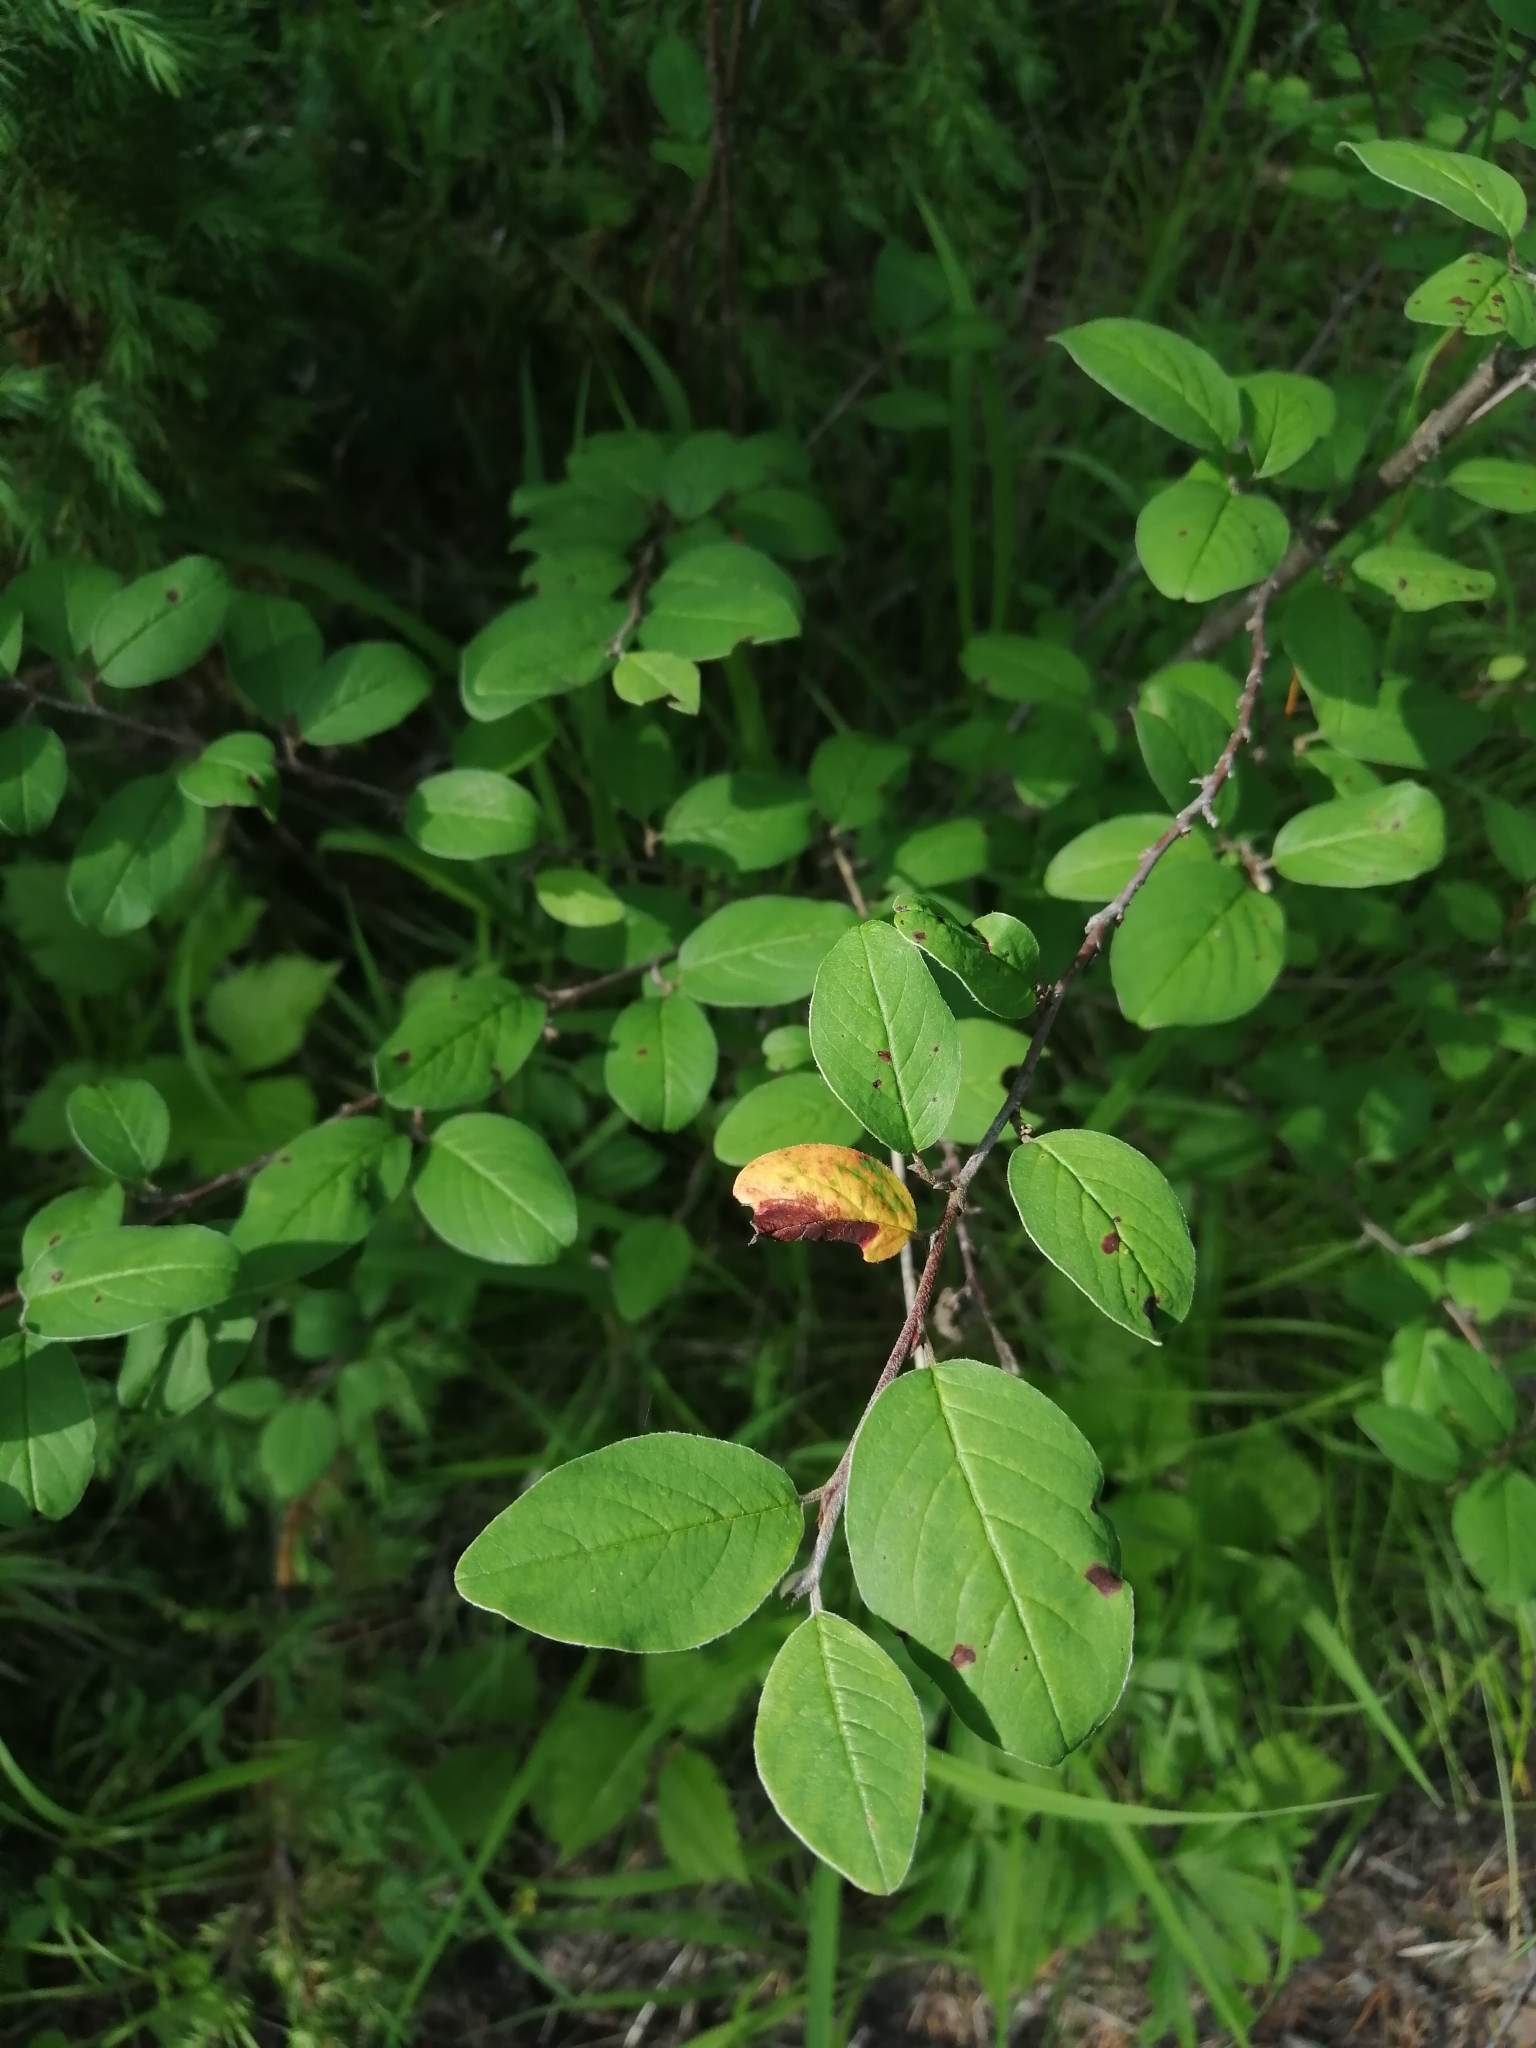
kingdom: Plantae
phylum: Tracheophyta
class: Magnoliopsida
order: Rosales
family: Rosaceae
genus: Cotoneaster
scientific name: Cotoneaster melanocarpus
